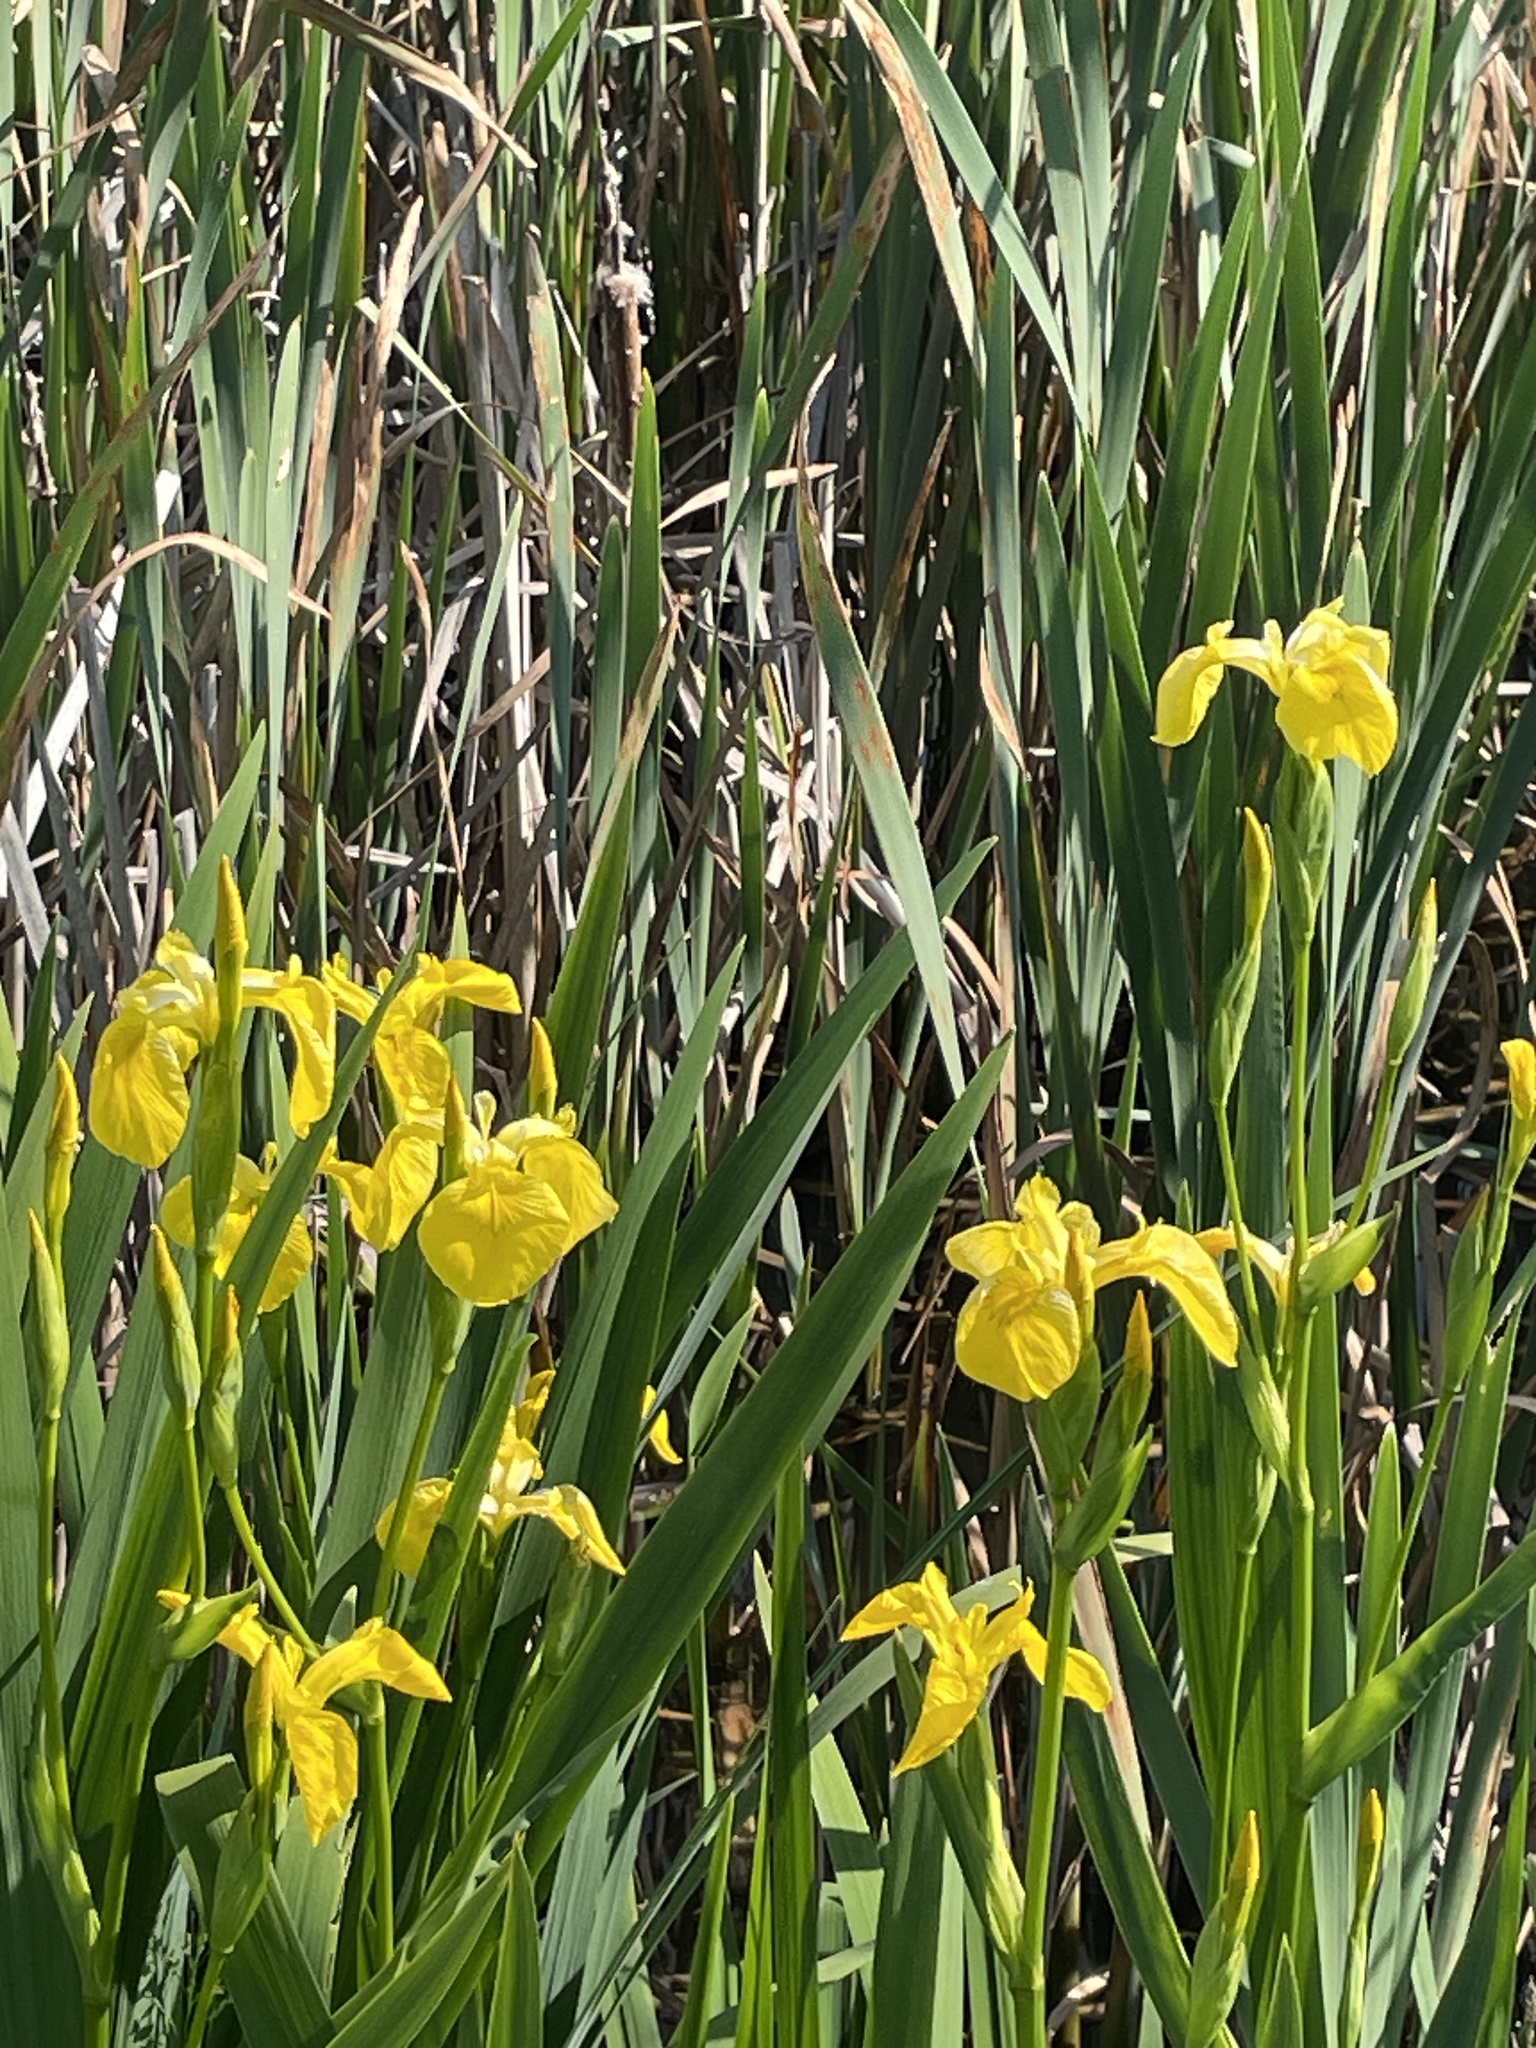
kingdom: Plantae
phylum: Tracheophyta
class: Liliopsida
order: Asparagales
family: Iridaceae
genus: Iris
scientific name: Iris pseudacorus
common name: Yellow flag
